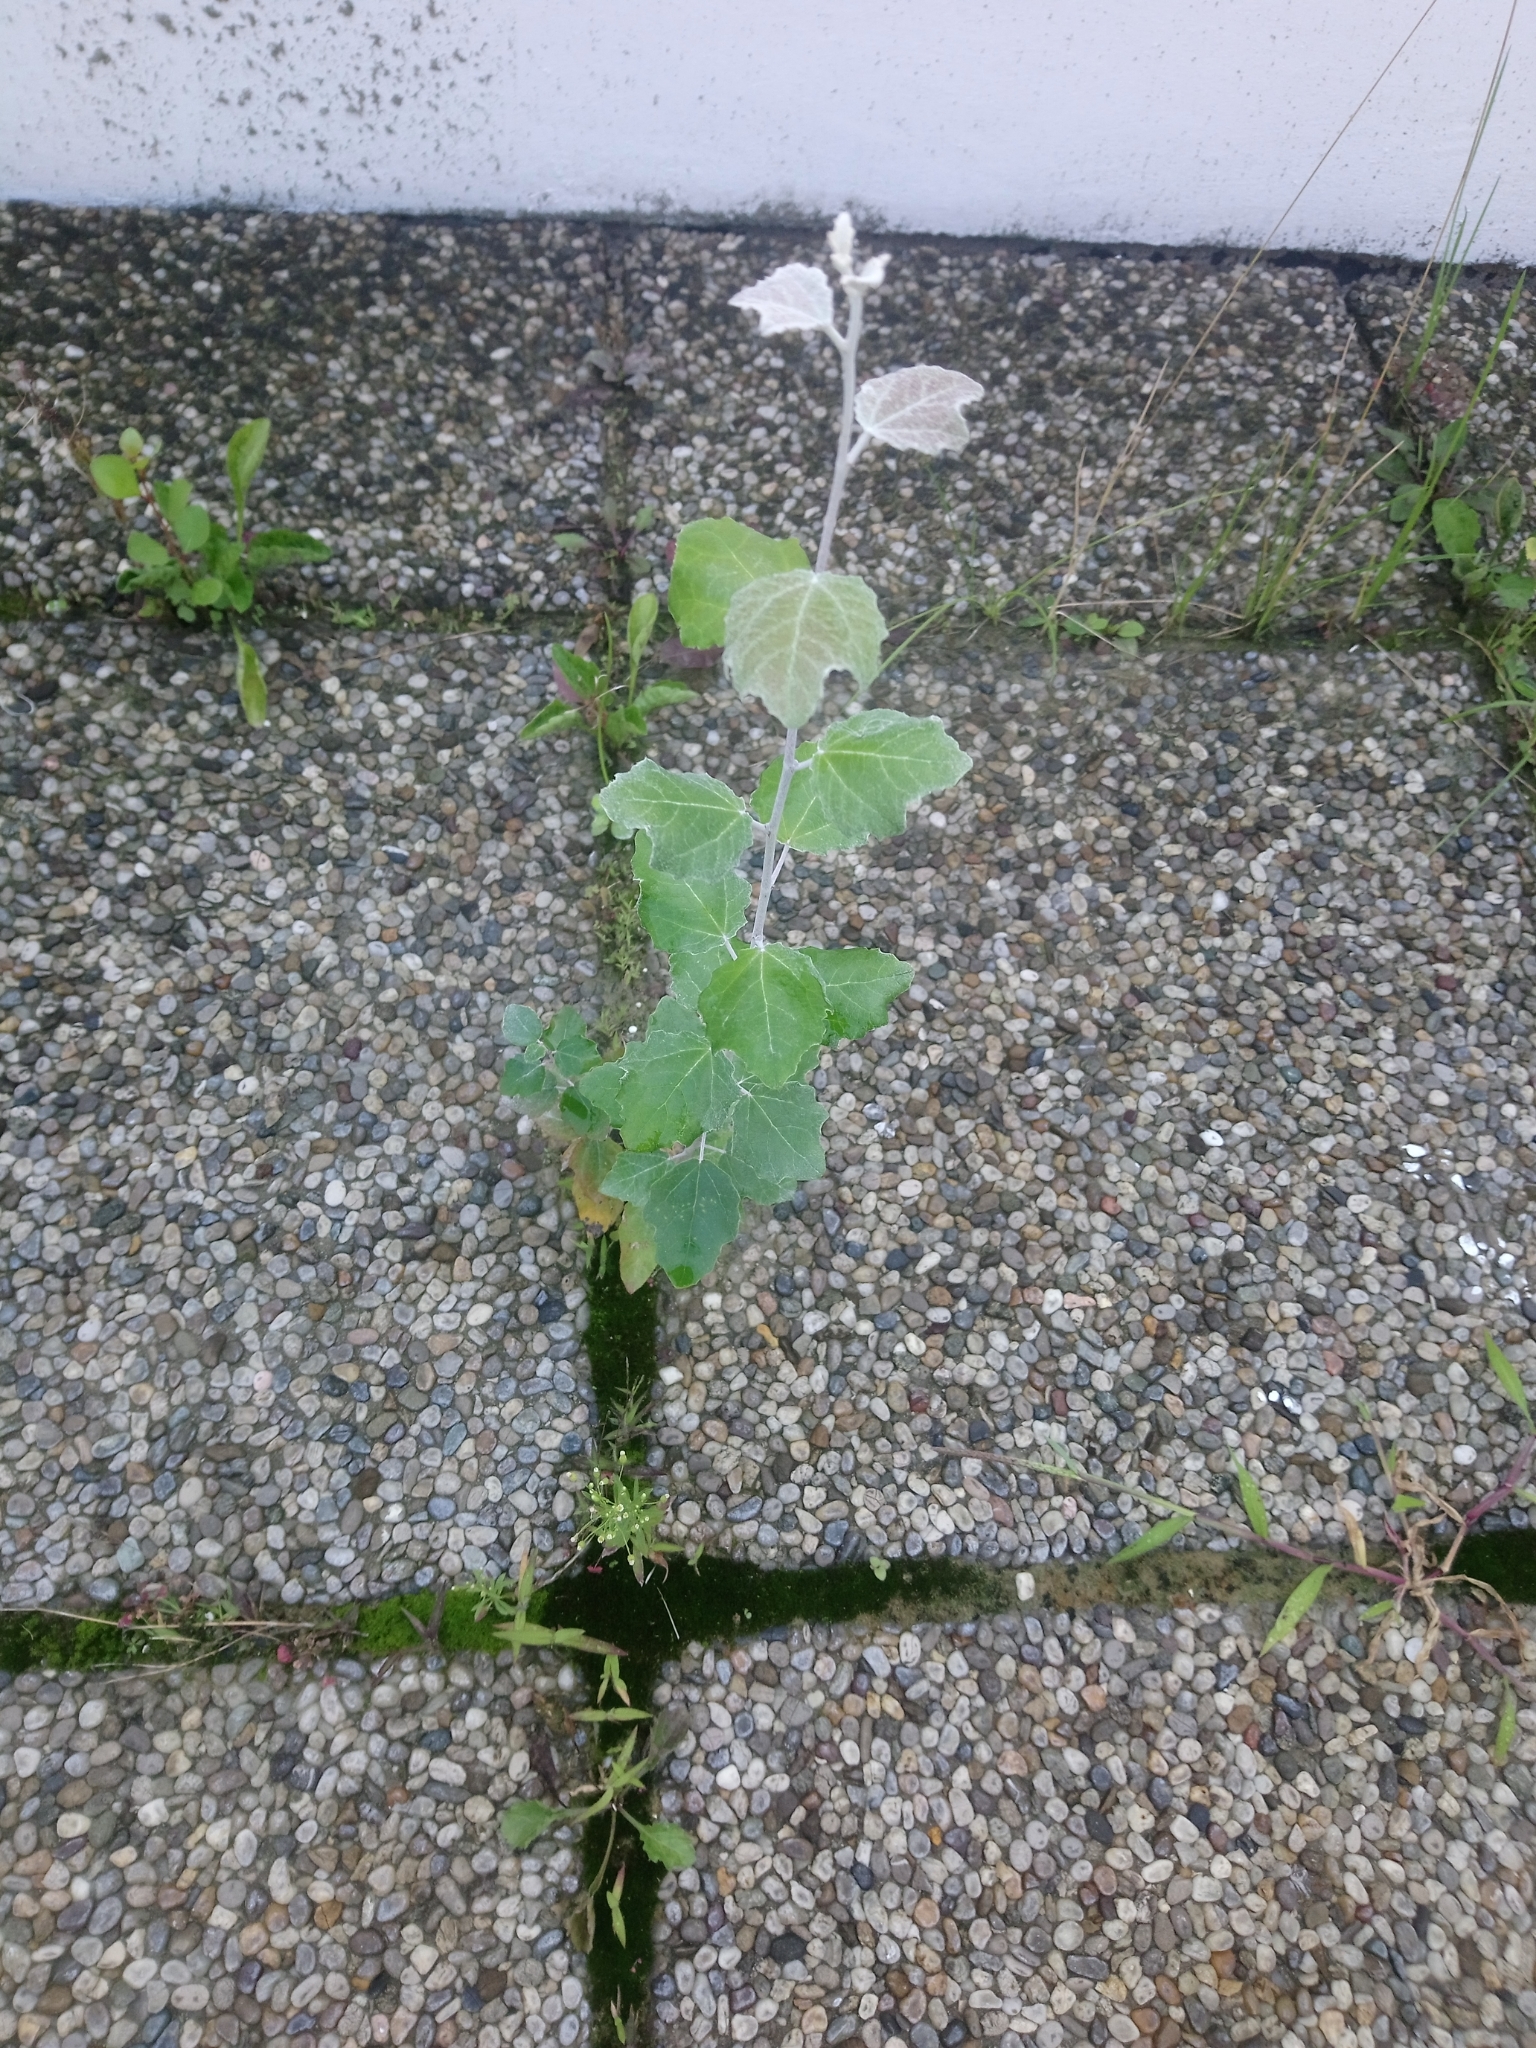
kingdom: Plantae
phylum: Tracheophyta
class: Magnoliopsida
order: Malpighiales
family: Salicaceae
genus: Populus
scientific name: Populus alba
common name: White poplar
